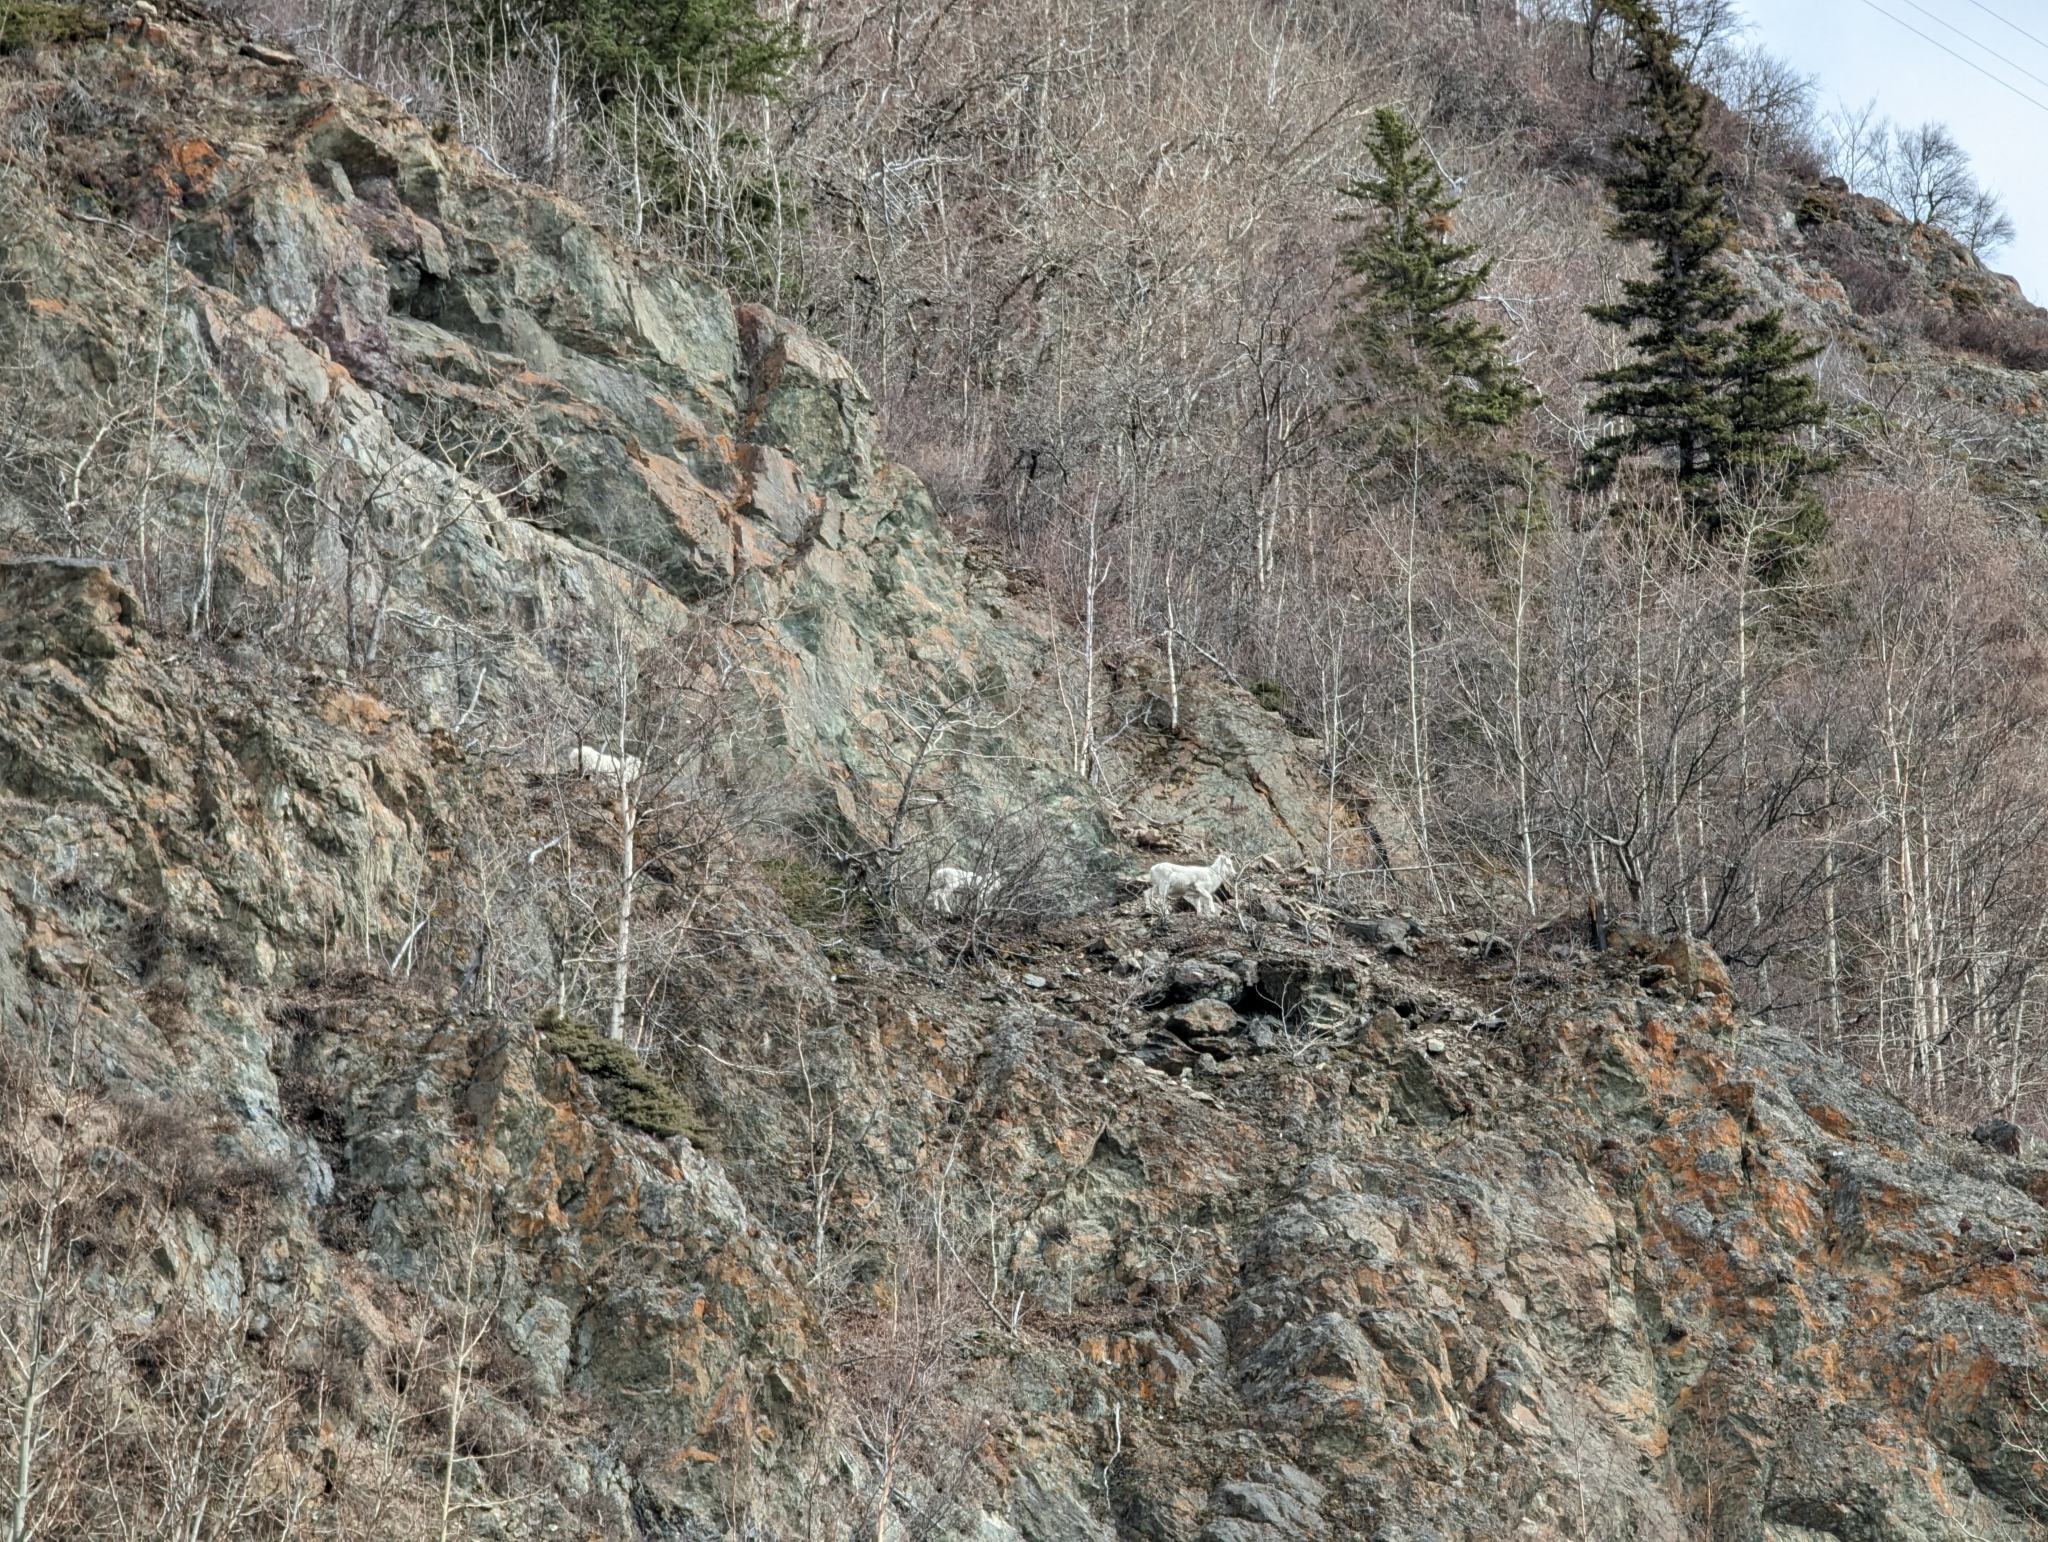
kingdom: Animalia
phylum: Chordata
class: Mammalia
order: Artiodactyla
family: Bovidae
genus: Ovis
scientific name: Ovis dalli
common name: Dall's sheep
